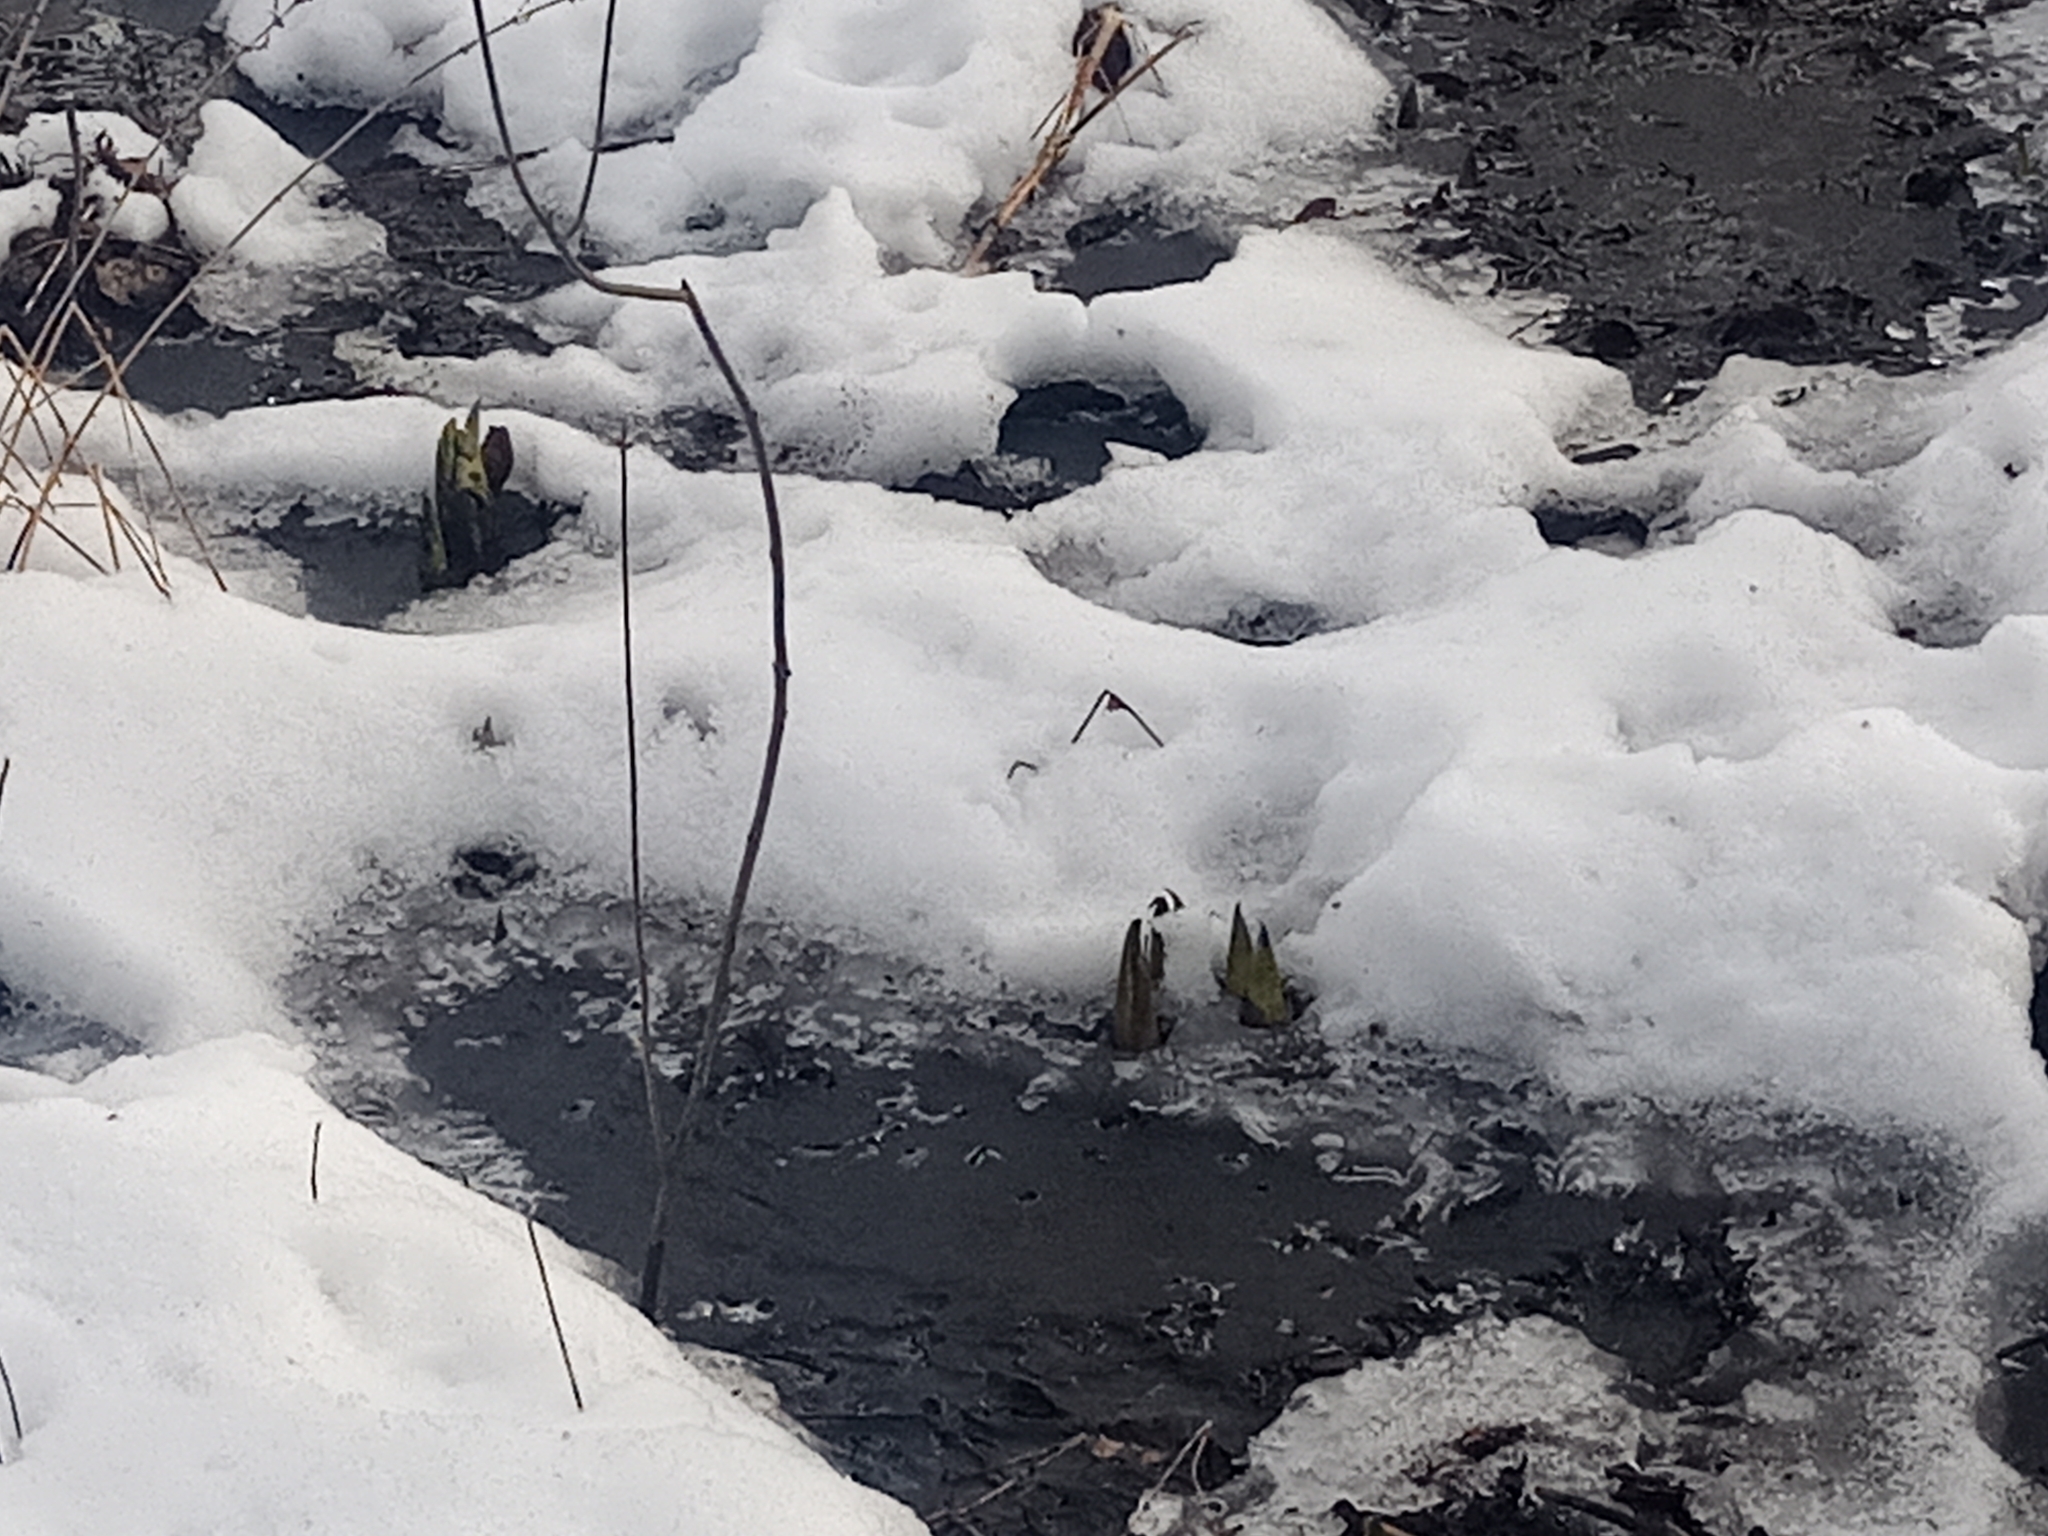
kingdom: Plantae
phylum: Tracheophyta
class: Liliopsida
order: Alismatales
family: Araceae
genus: Symplocarpus
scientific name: Symplocarpus foetidus
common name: Eastern skunk cabbage
